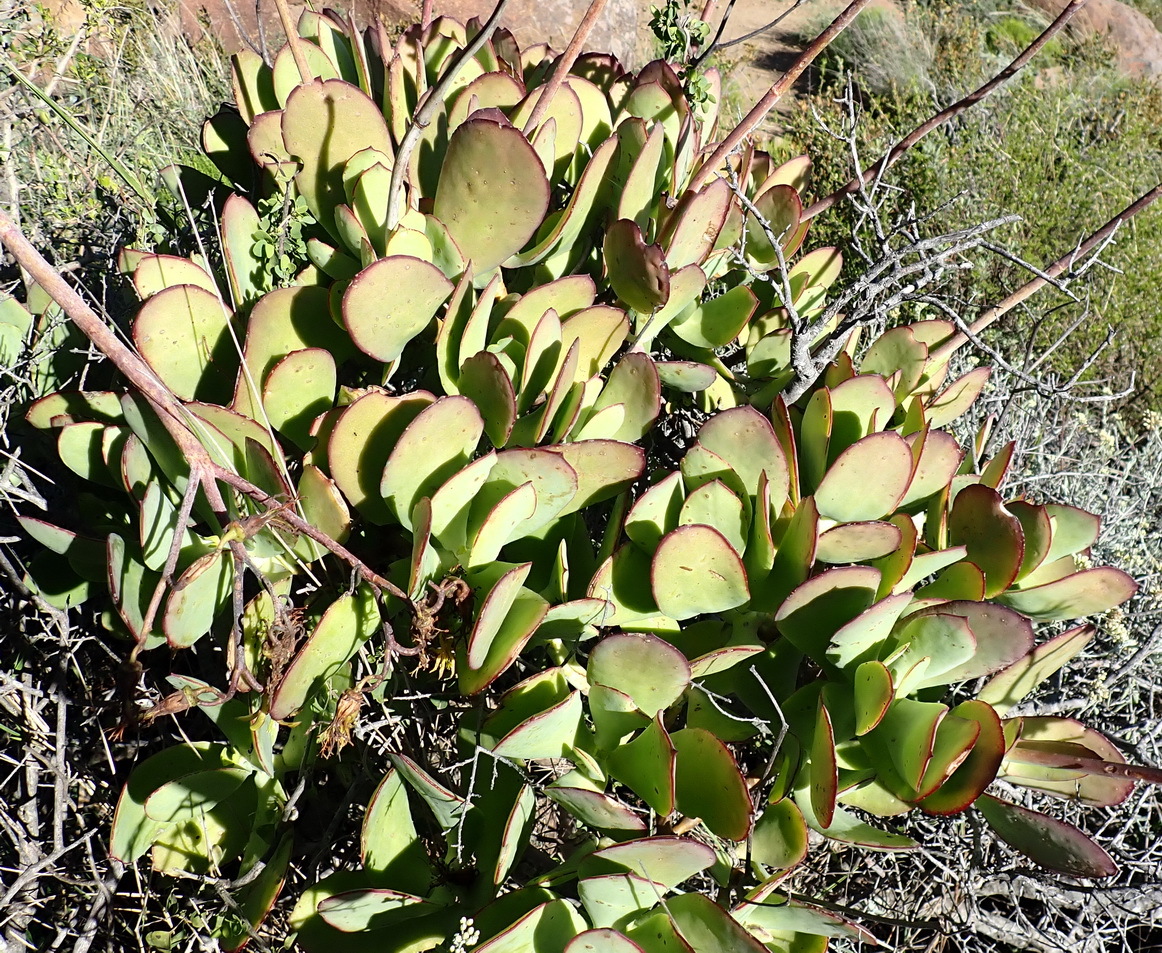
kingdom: Plantae
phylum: Tracheophyta
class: Magnoliopsida
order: Saxifragales
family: Crassulaceae
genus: Cotyledon
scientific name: Cotyledon velutina
